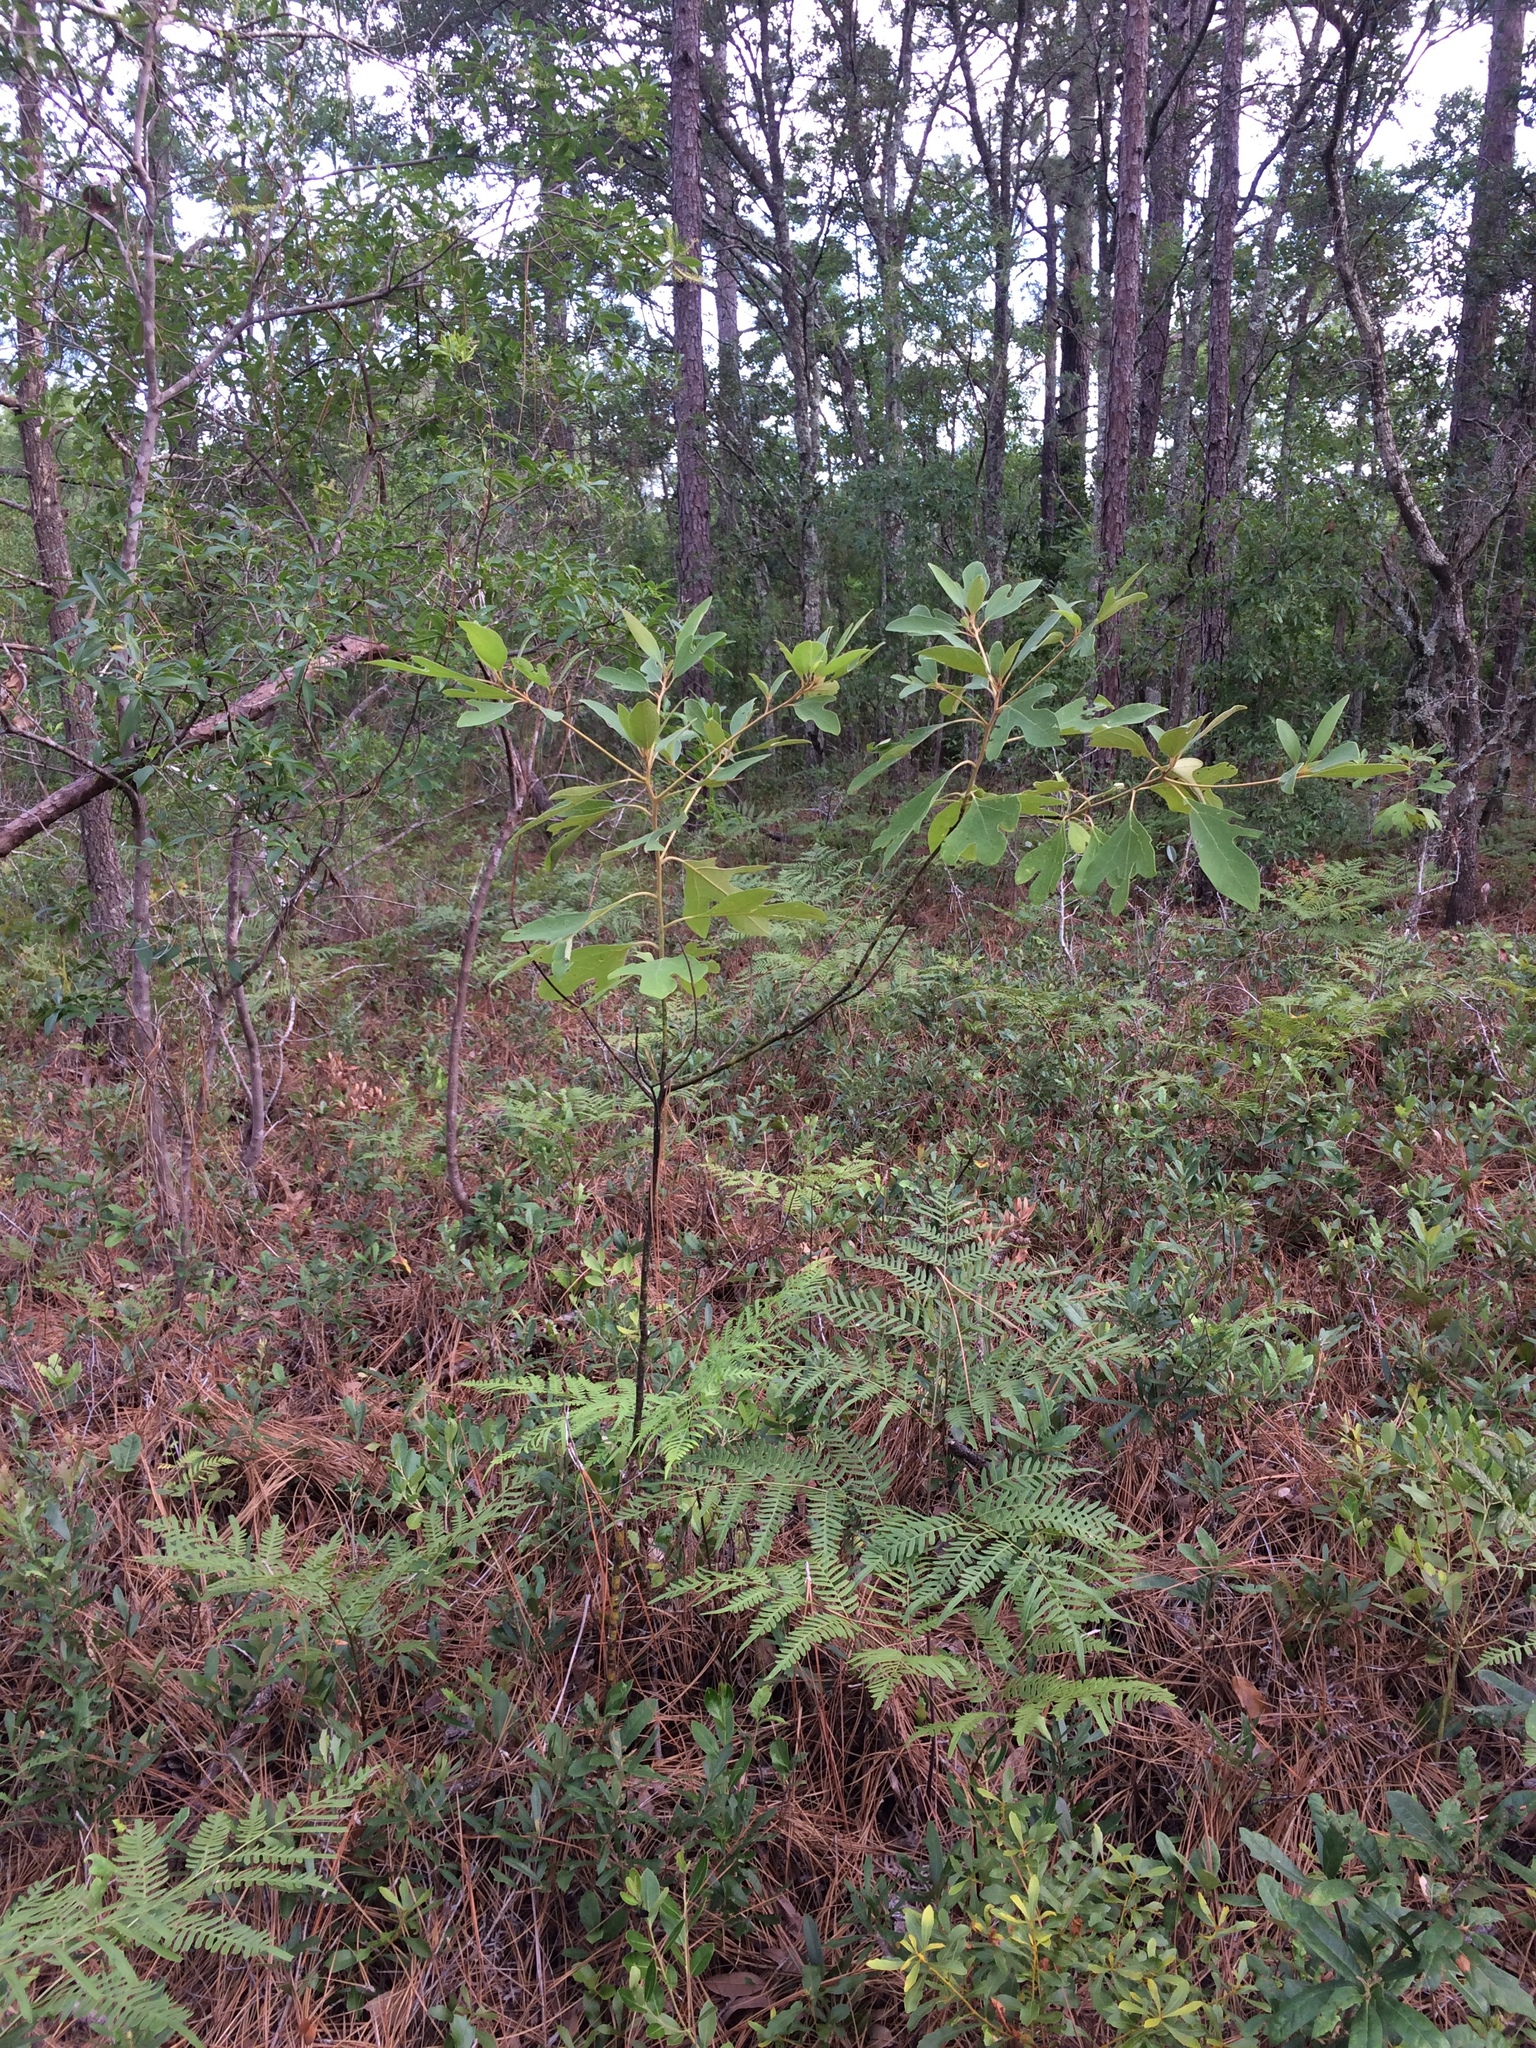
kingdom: Plantae
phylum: Tracheophyta
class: Magnoliopsida
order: Laurales
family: Lauraceae
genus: Sassafras
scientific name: Sassafras albidum
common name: Sassafras
